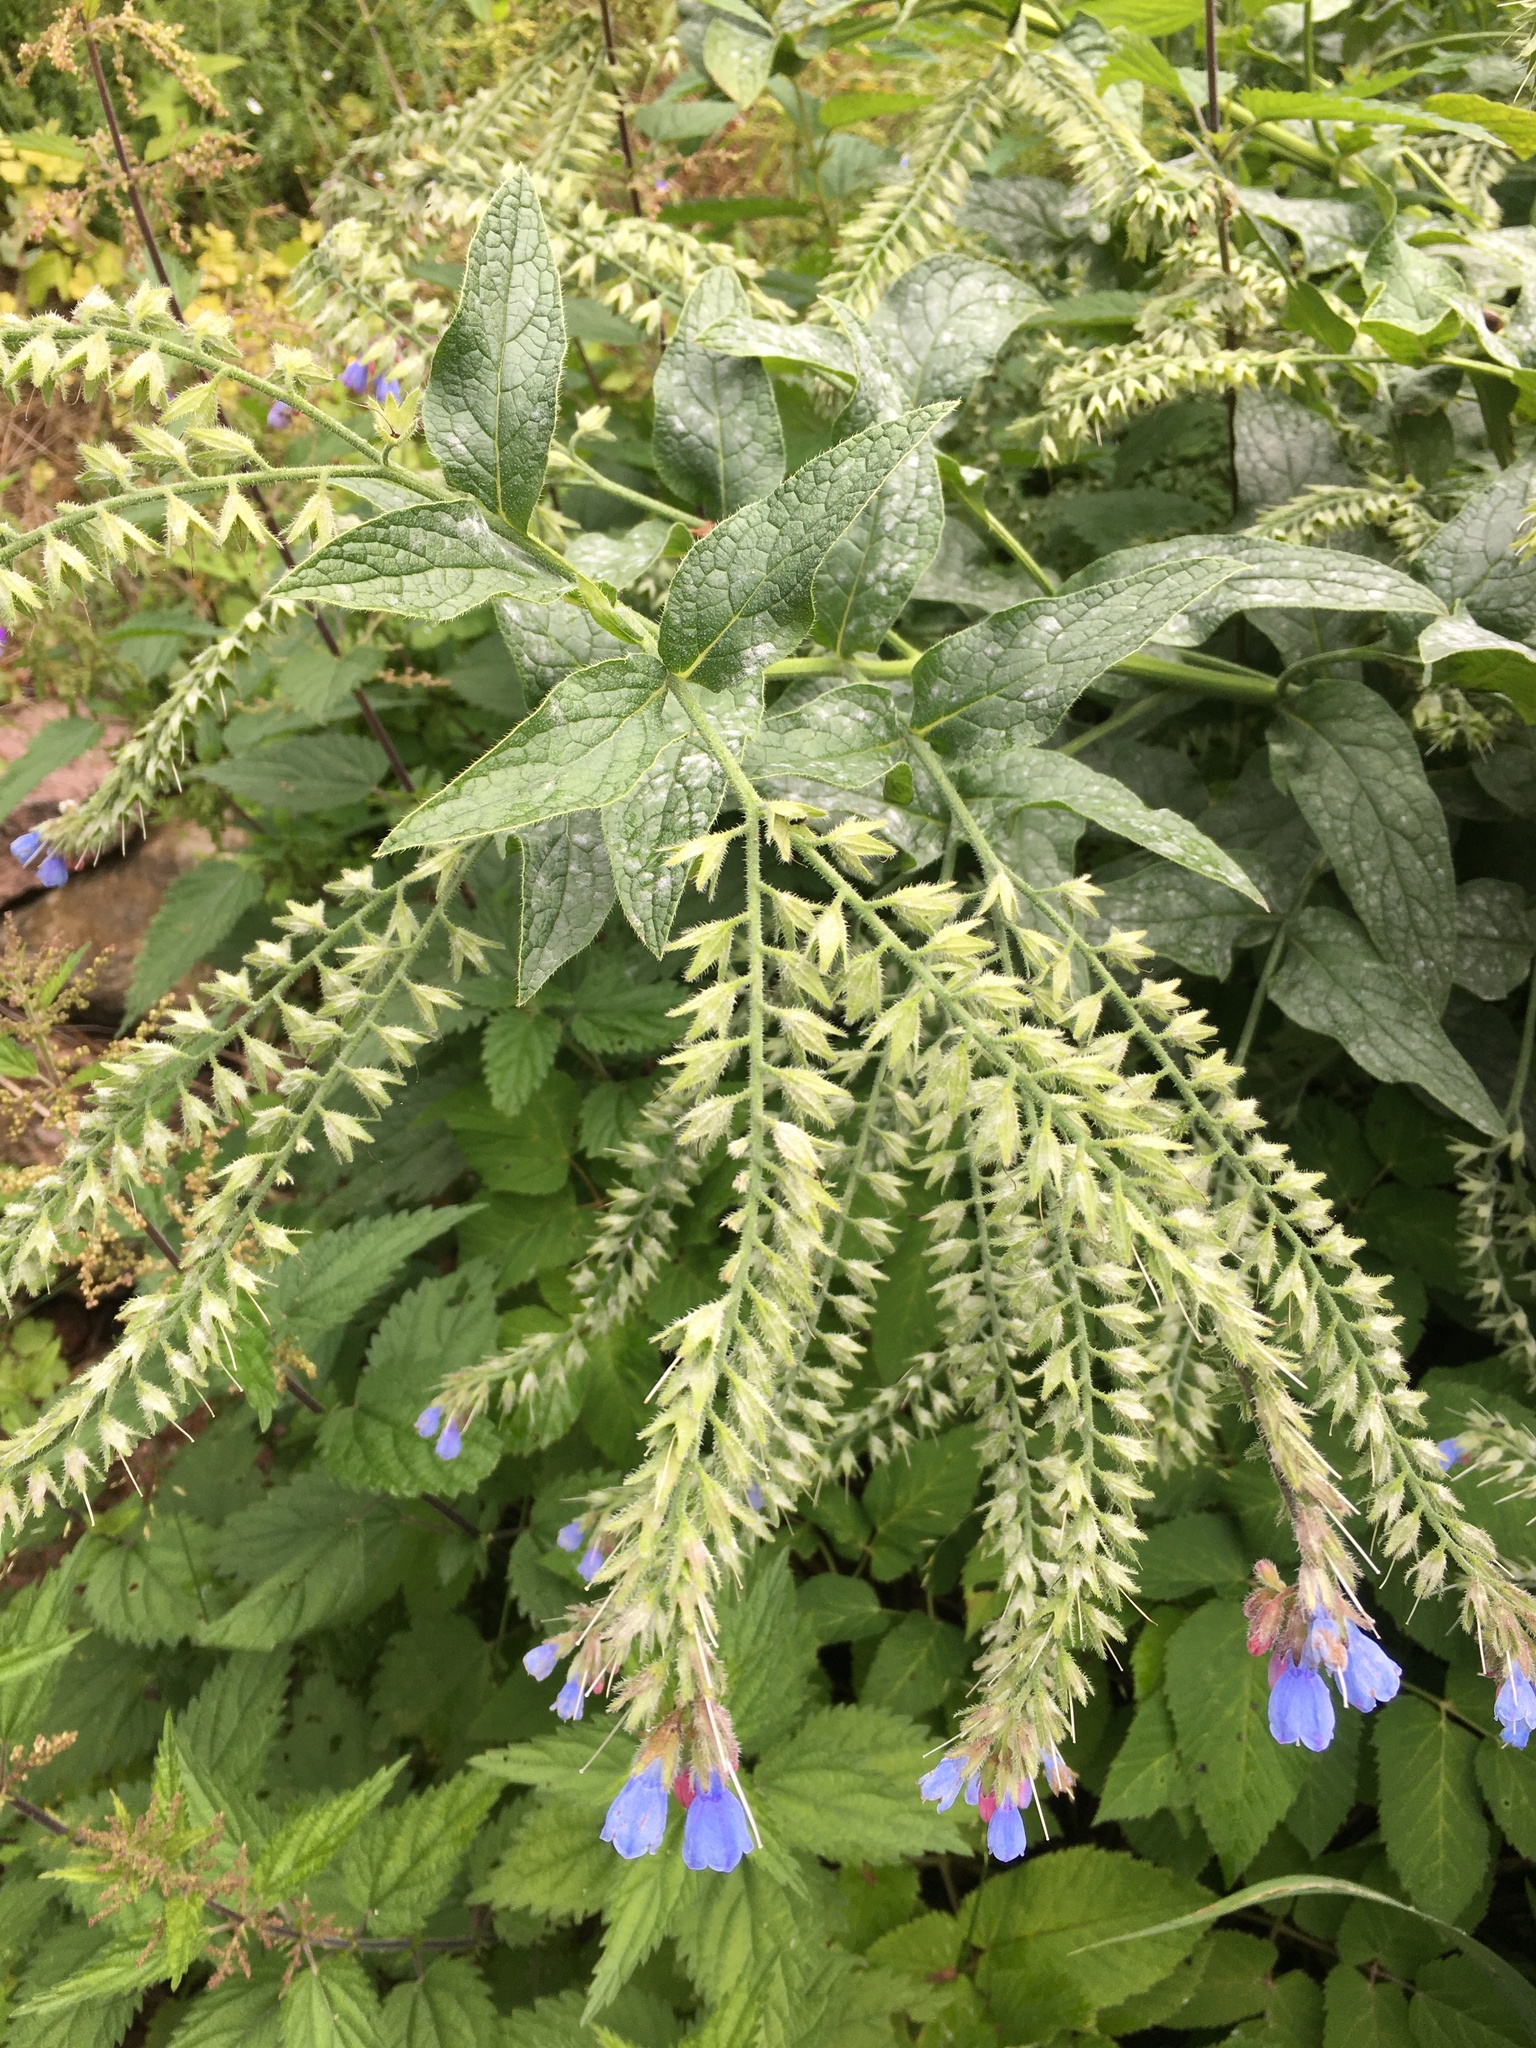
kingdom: Plantae
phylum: Tracheophyta
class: Magnoliopsida
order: Boraginales
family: Boraginaceae
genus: Symphytum
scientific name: Symphytum caucasicum
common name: Caucasian comfrey
